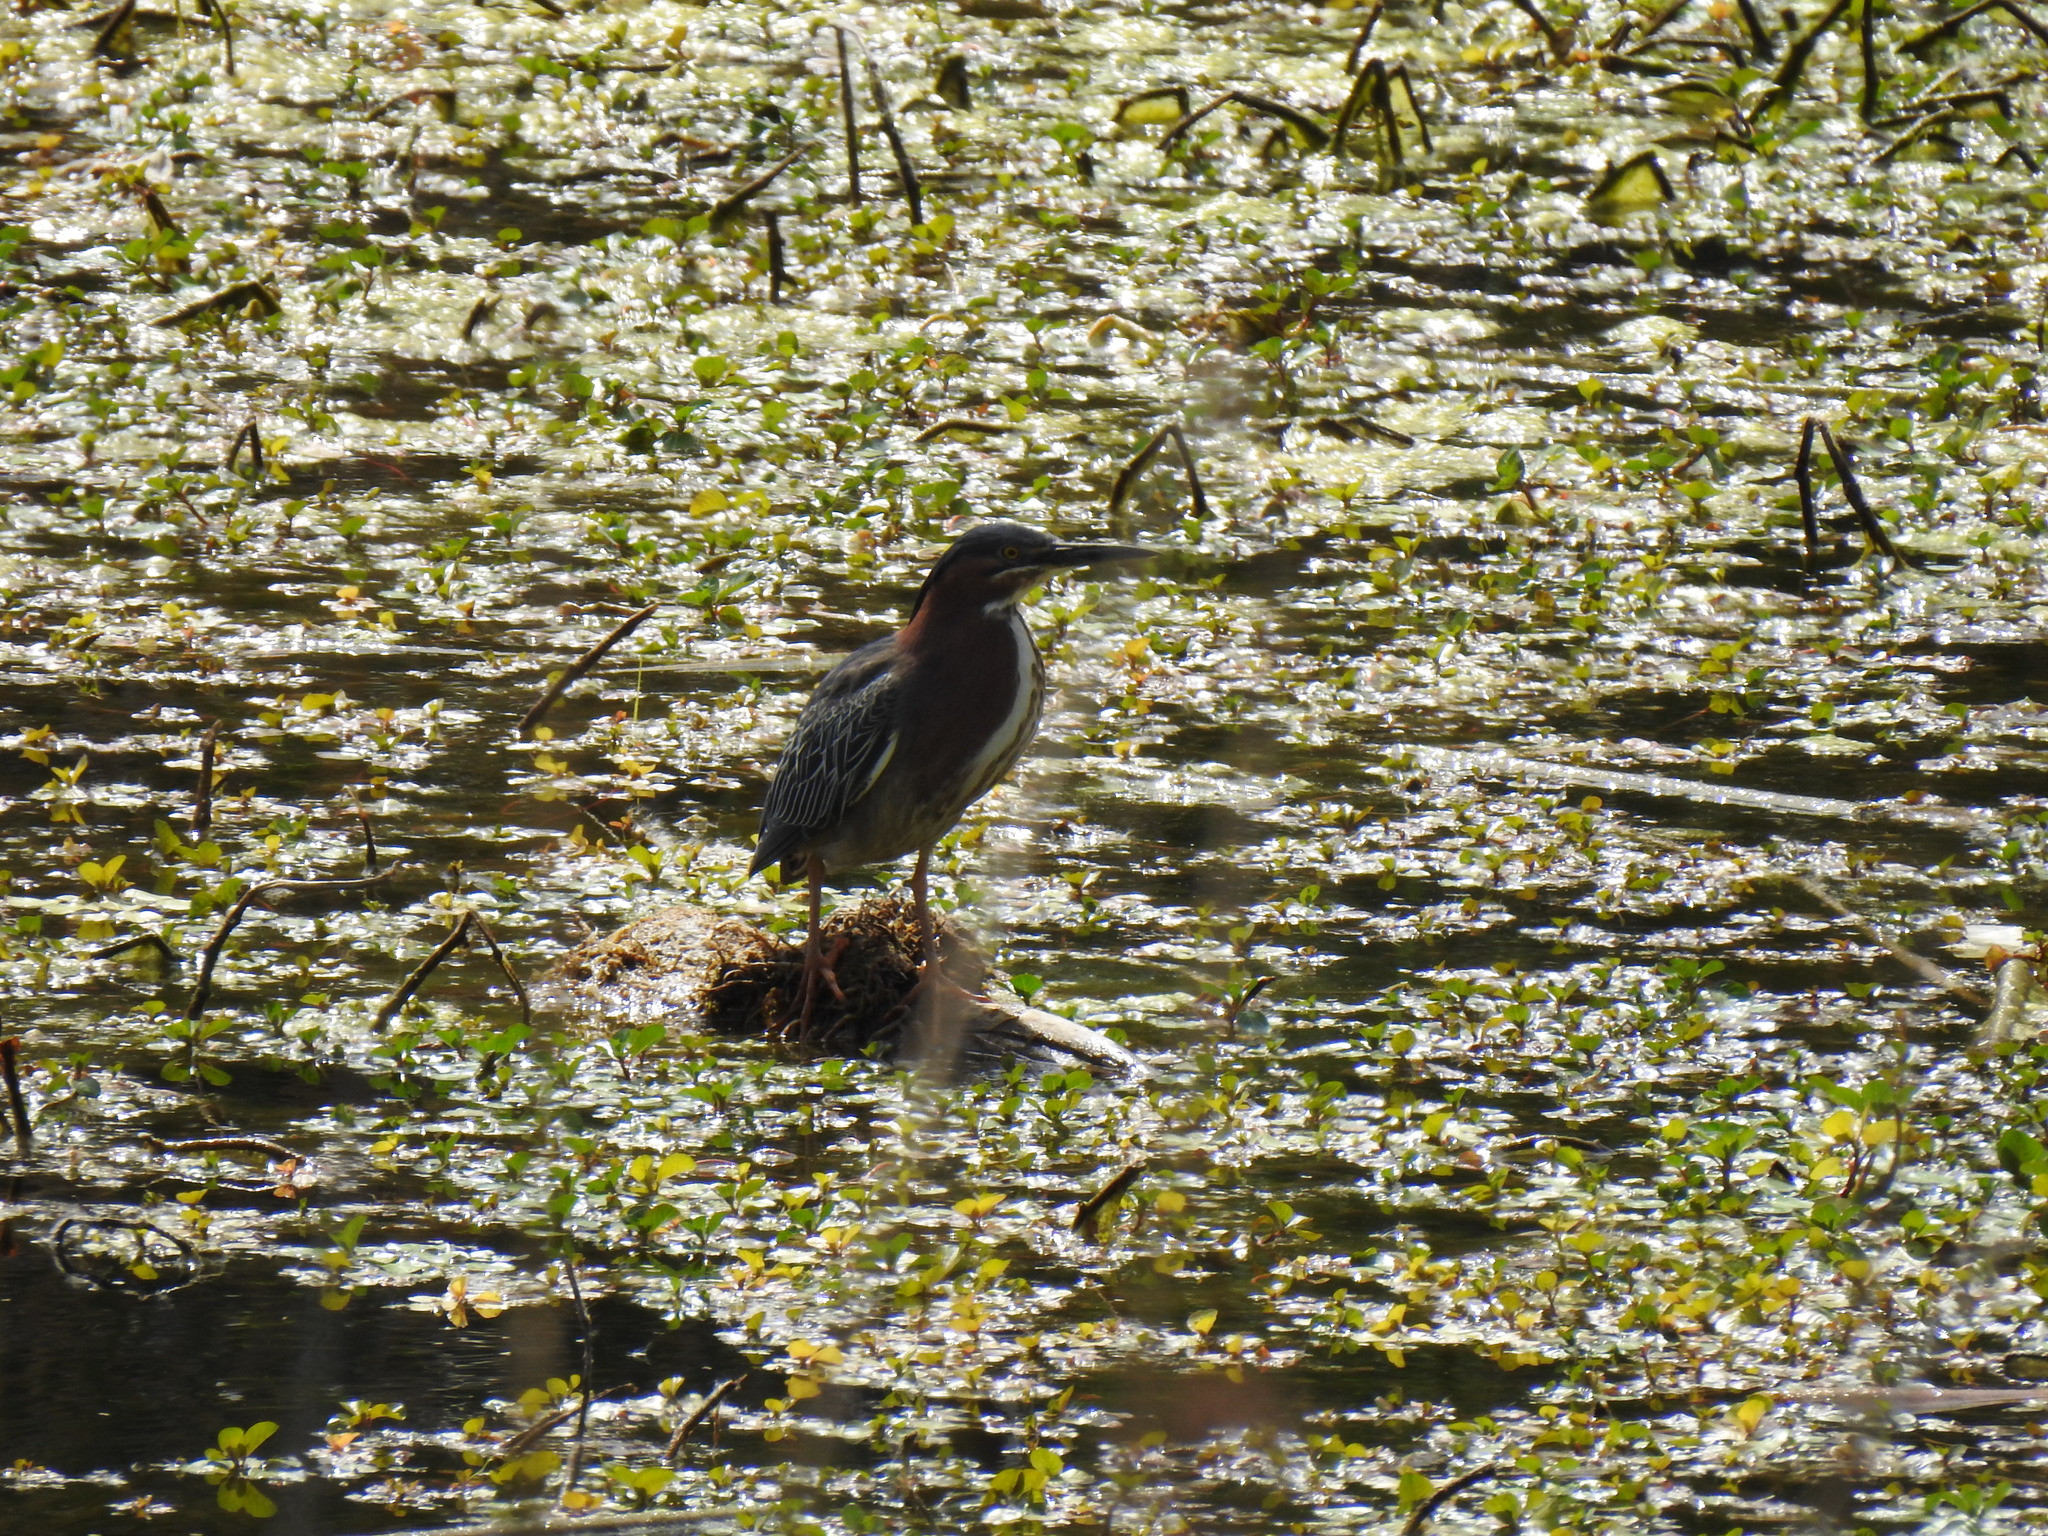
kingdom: Animalia
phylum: Chordata
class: Aves
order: Pelecaniformes
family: Ardeidae
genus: Butorides
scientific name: Butorides virescens
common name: Green heron
